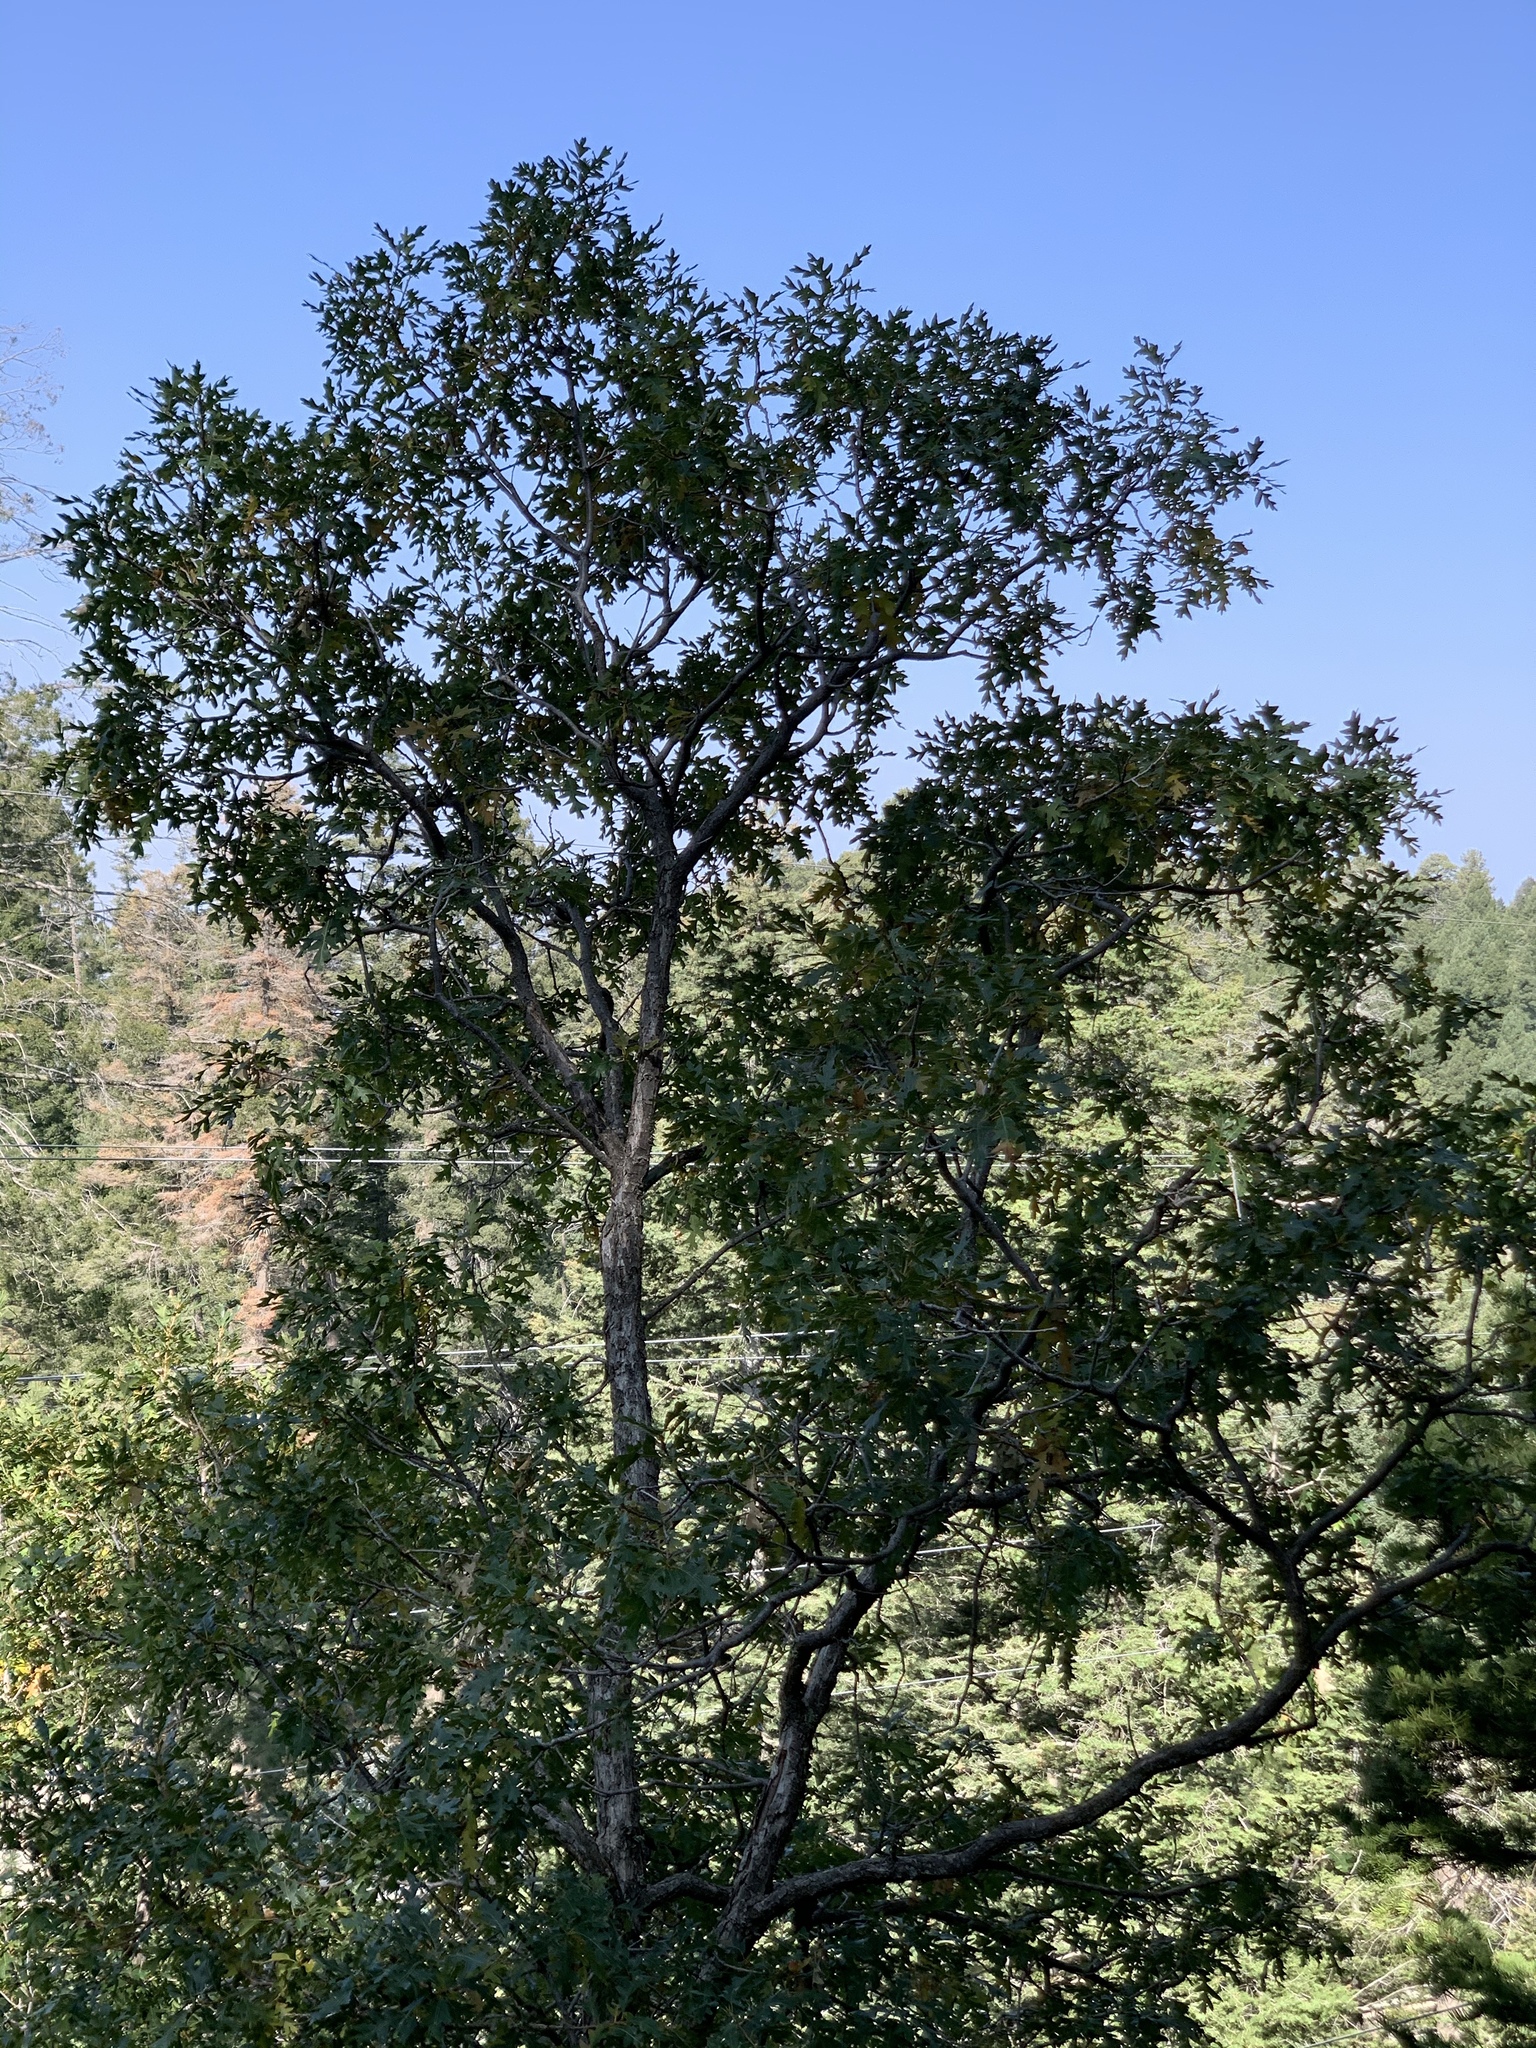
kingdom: Plantae
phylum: Tracheophyta
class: Magnoliopsida
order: Fagales
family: Fagaceae
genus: Quercus
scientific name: Quercus gambelii
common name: Gambel oak
